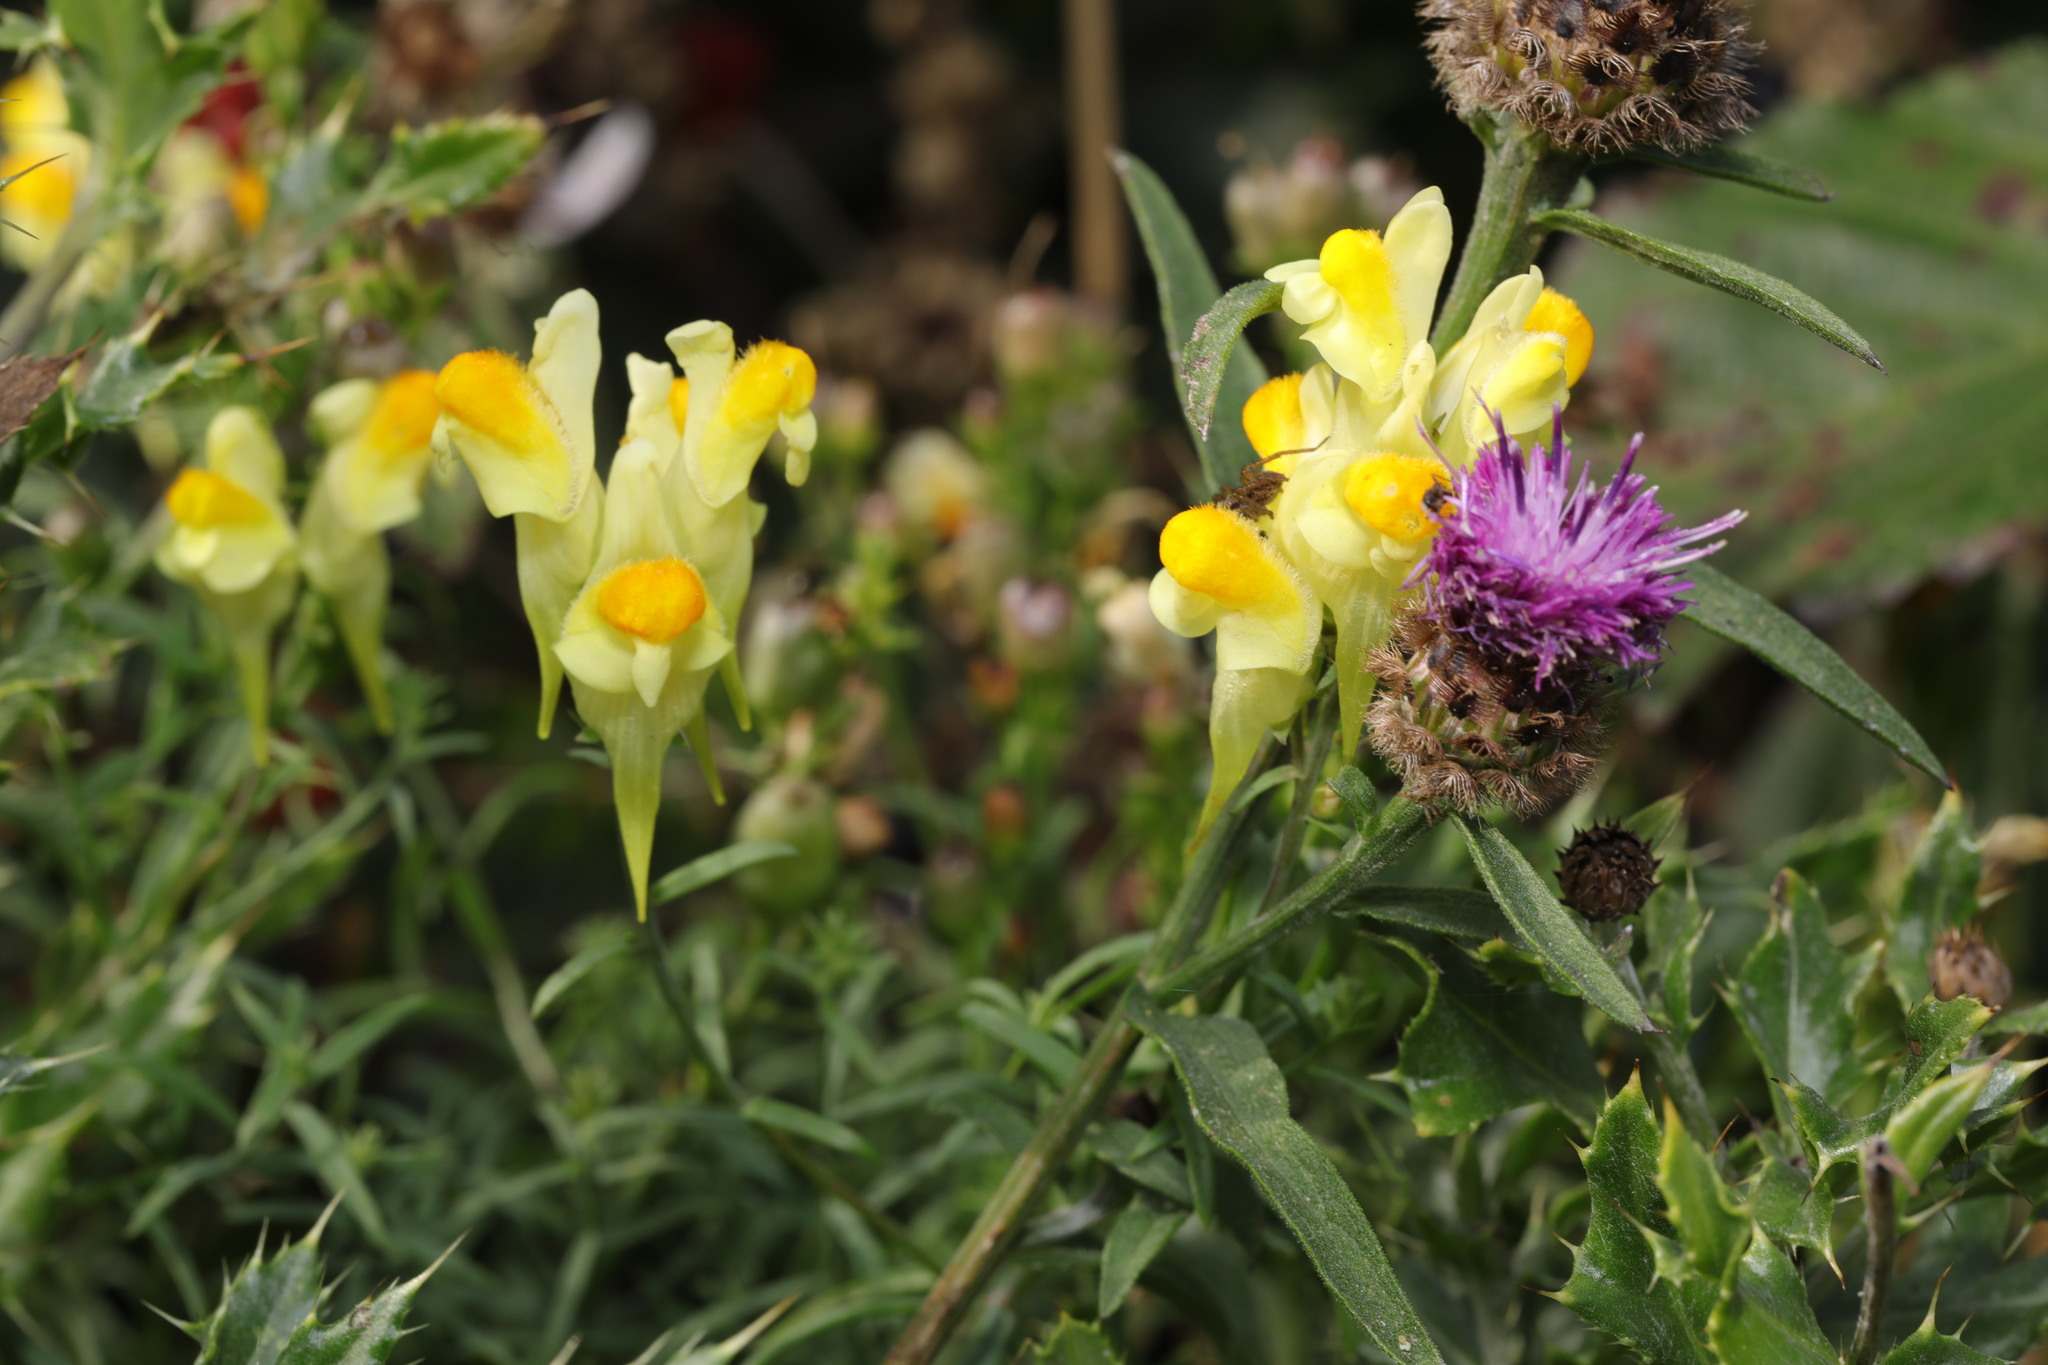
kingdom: Plantae
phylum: Tracheophyta
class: Magnoliopsida
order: Lamiales
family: Plantaginaceae
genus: Linaria
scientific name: Linaria vulgaris
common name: Butter and eggs
